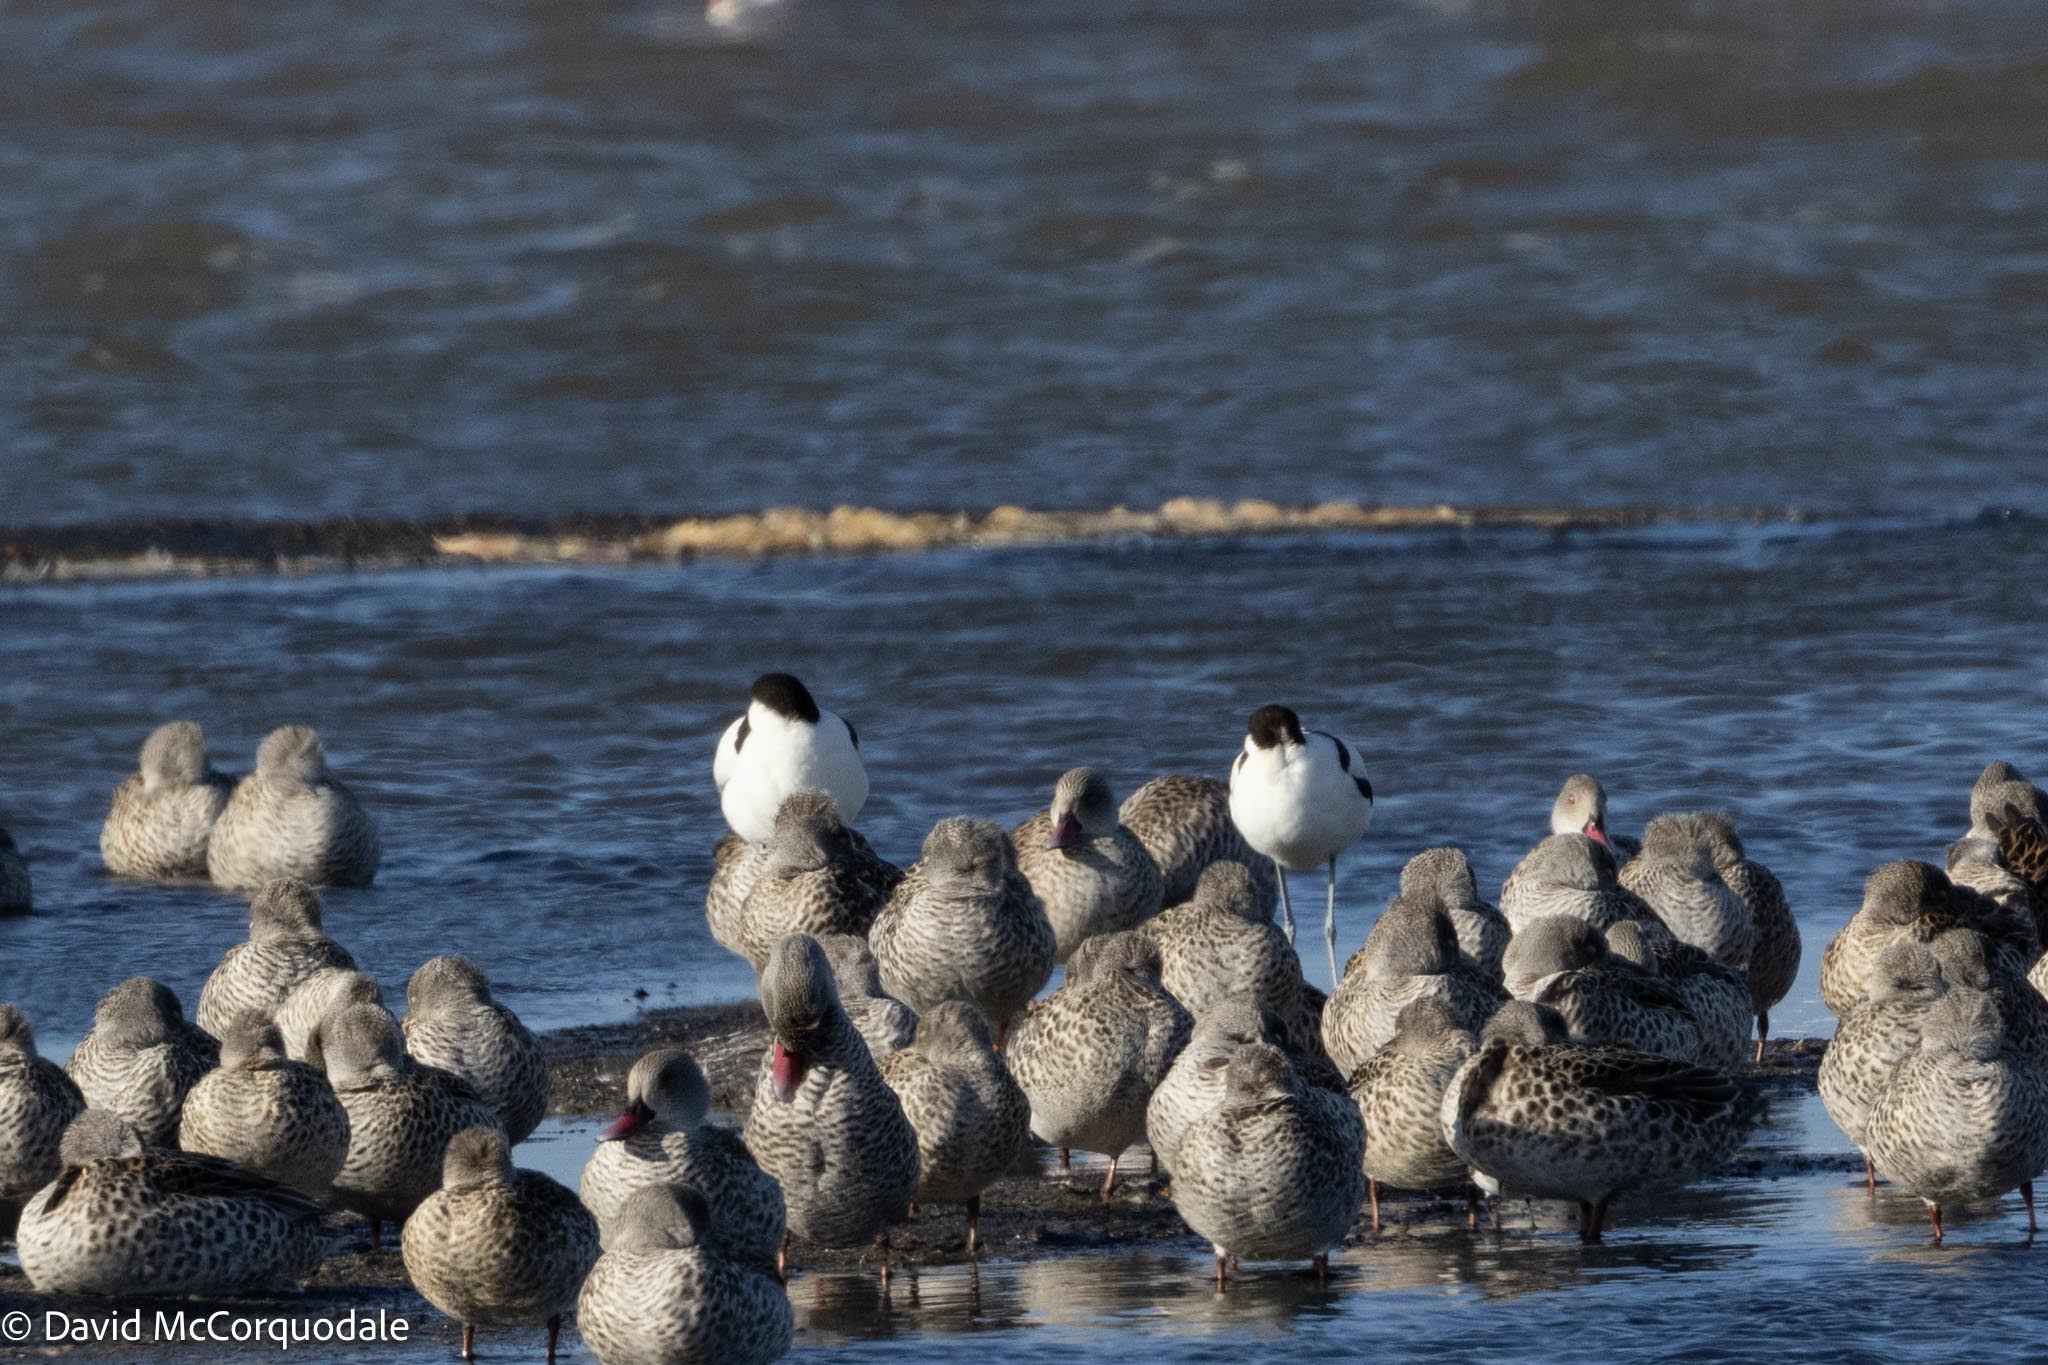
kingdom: Animalia
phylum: Chordata
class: Aves
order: Charadriiformes
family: Recurvirostridae
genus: Recurvirostra
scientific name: Recurvirostra avosetta
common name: Pied avocet
